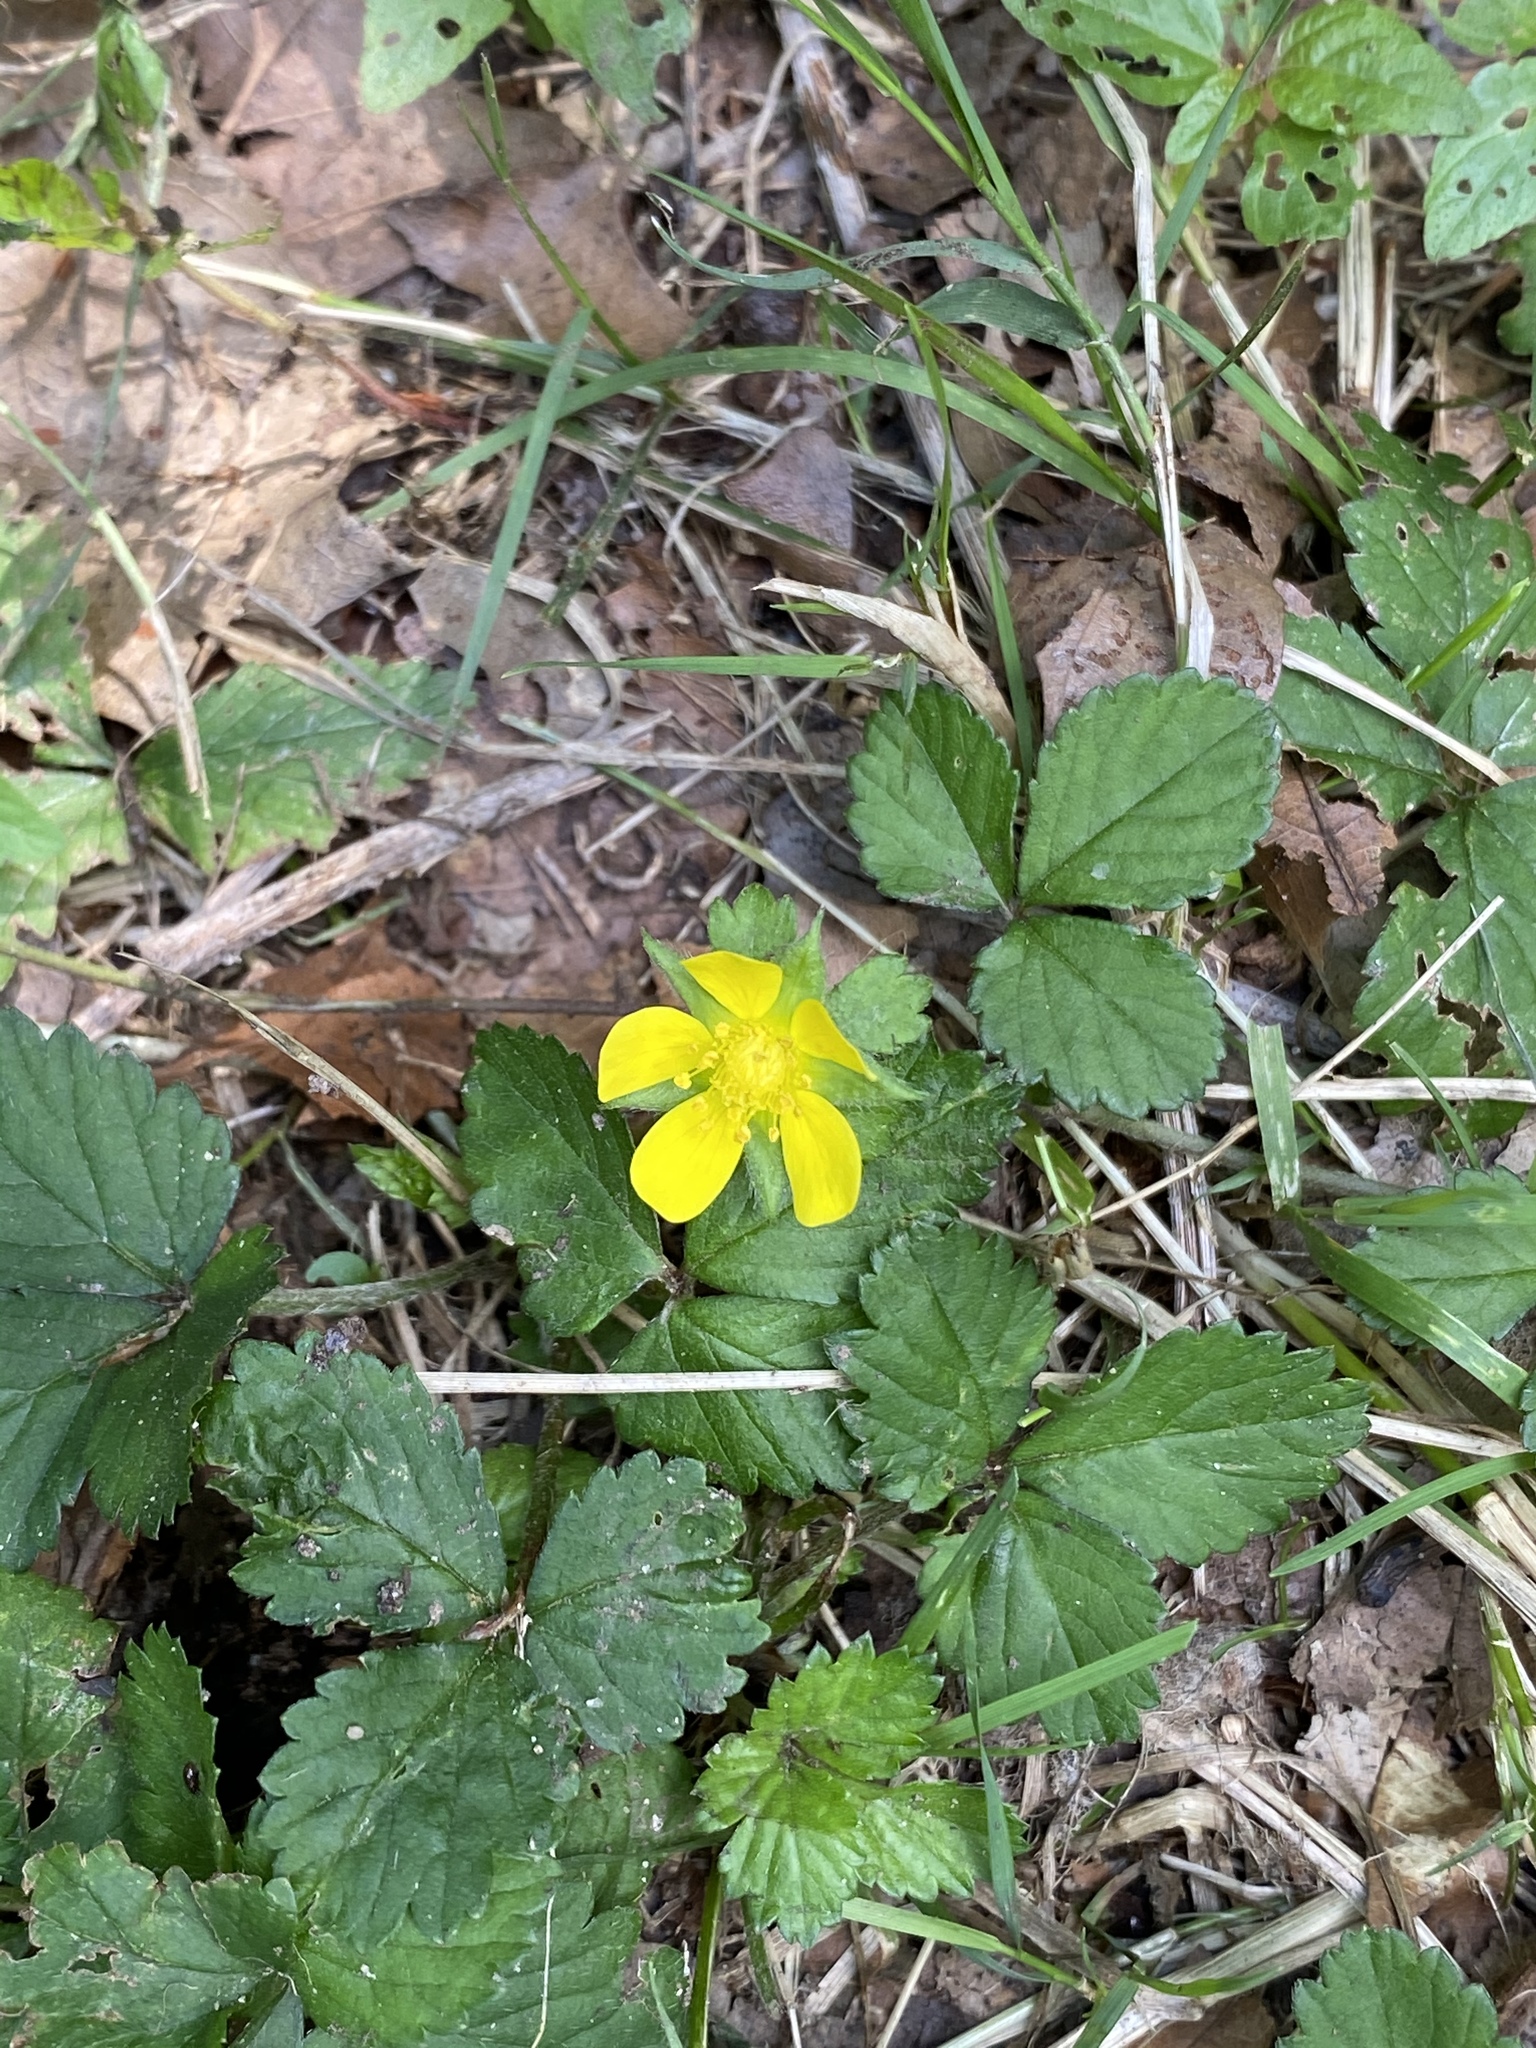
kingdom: Plantae
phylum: Tracheophyta
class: Magnoliopsida
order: Rosales
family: Rosaceae
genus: Potentilla
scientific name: Potentilla indica
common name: Yellow-flowered strawberry
